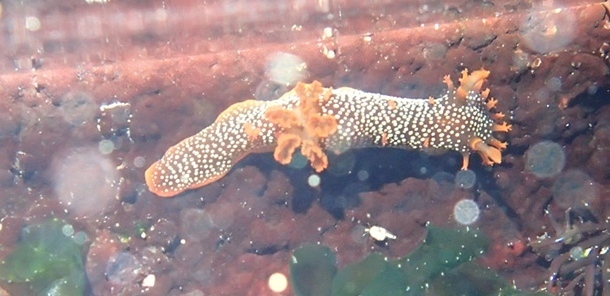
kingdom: Animalia
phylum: Mollusca
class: Gastropoda
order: Nudibranchia
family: Polyceridae
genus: Triopha
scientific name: Triopha maculata
